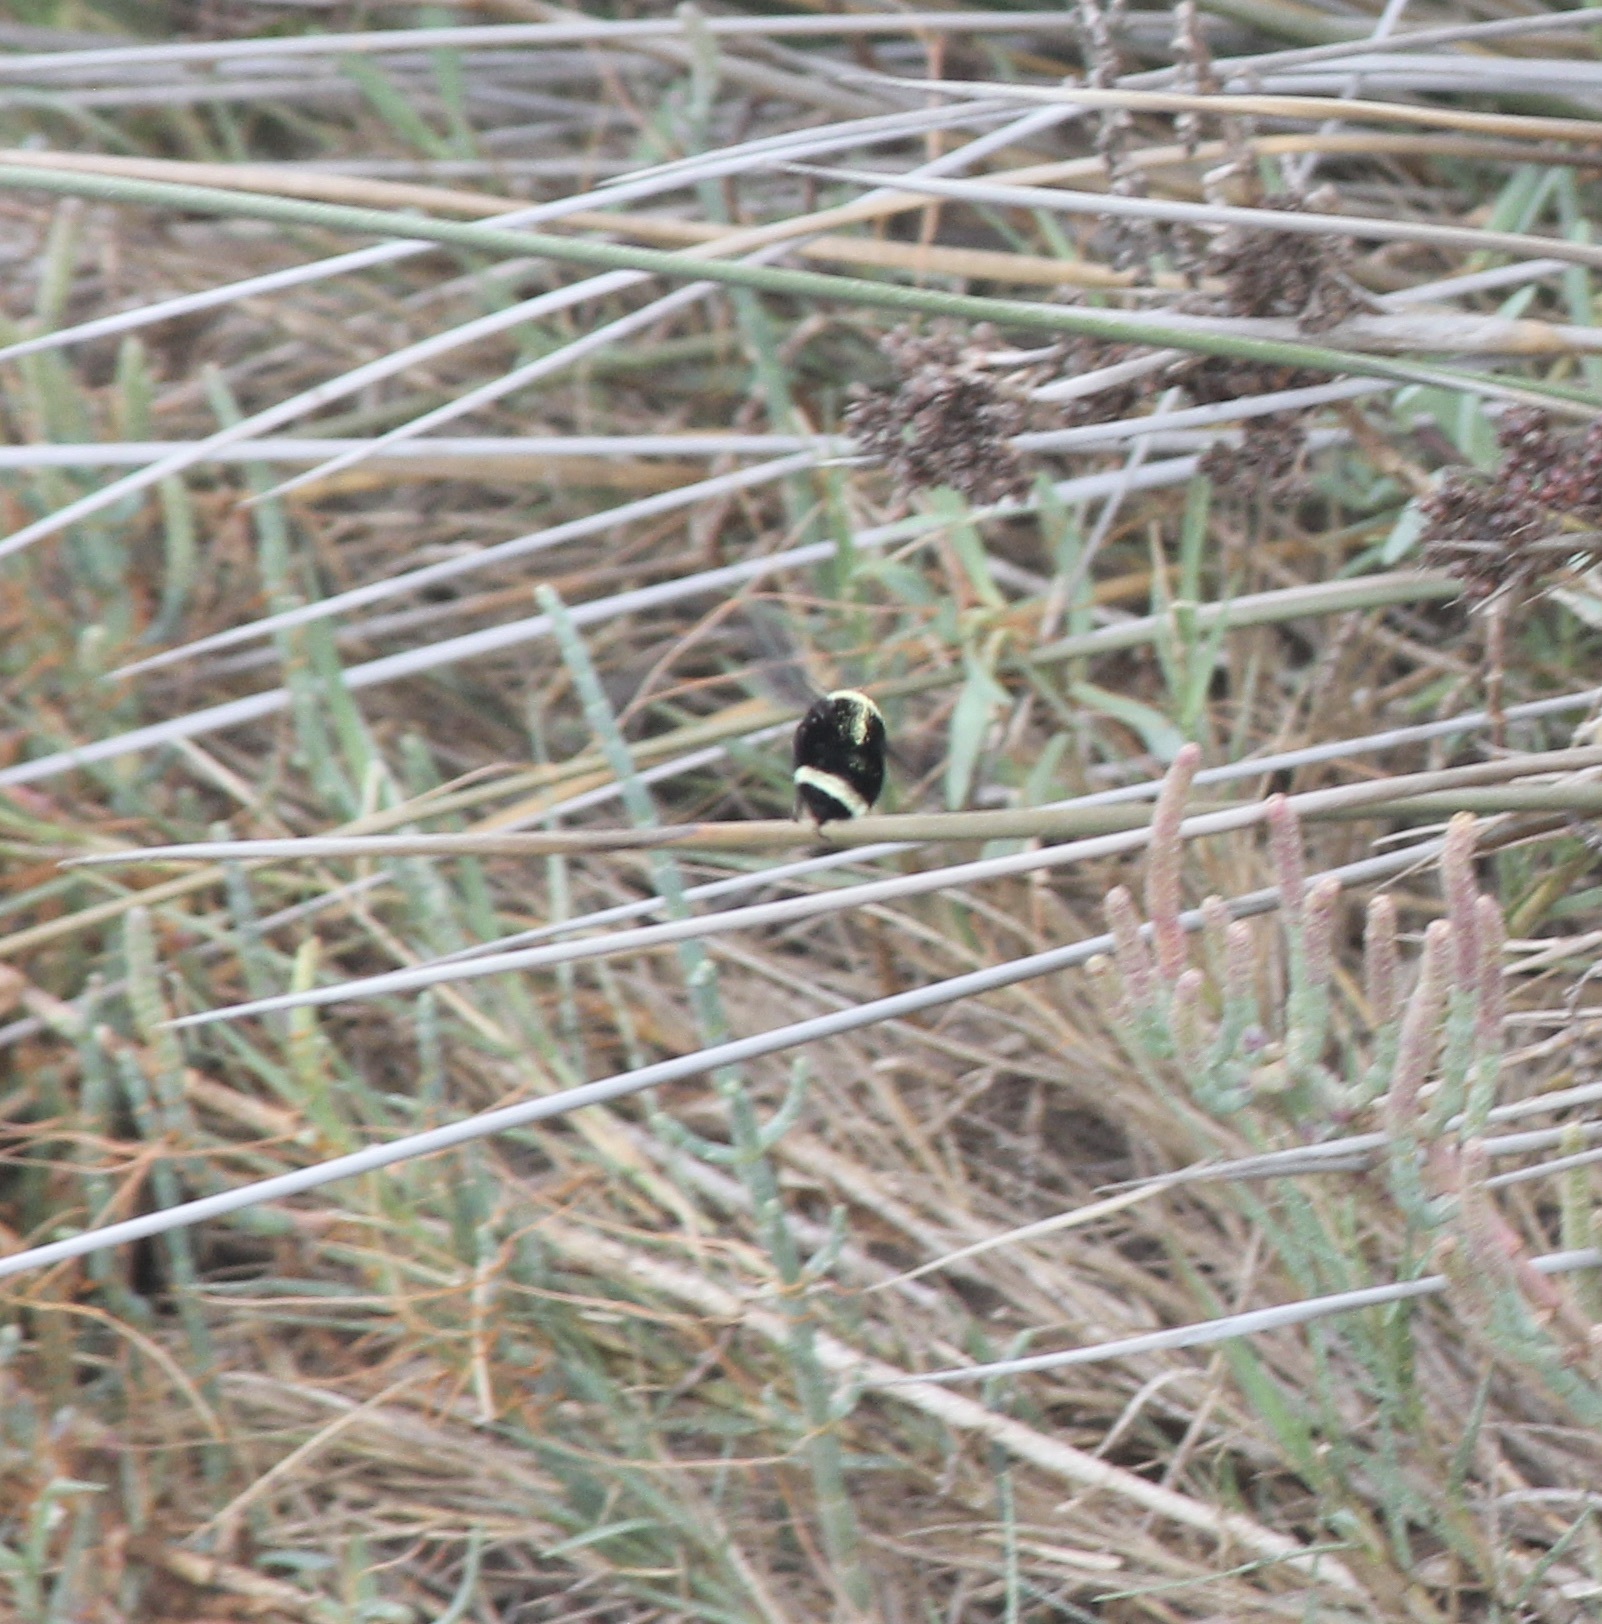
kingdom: Animalia
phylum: Arthropoda
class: Insecta
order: Hymenoptera
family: Apidae
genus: Bombus
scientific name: Bombus vosnesenskii
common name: Vosnesensky bumble bee
